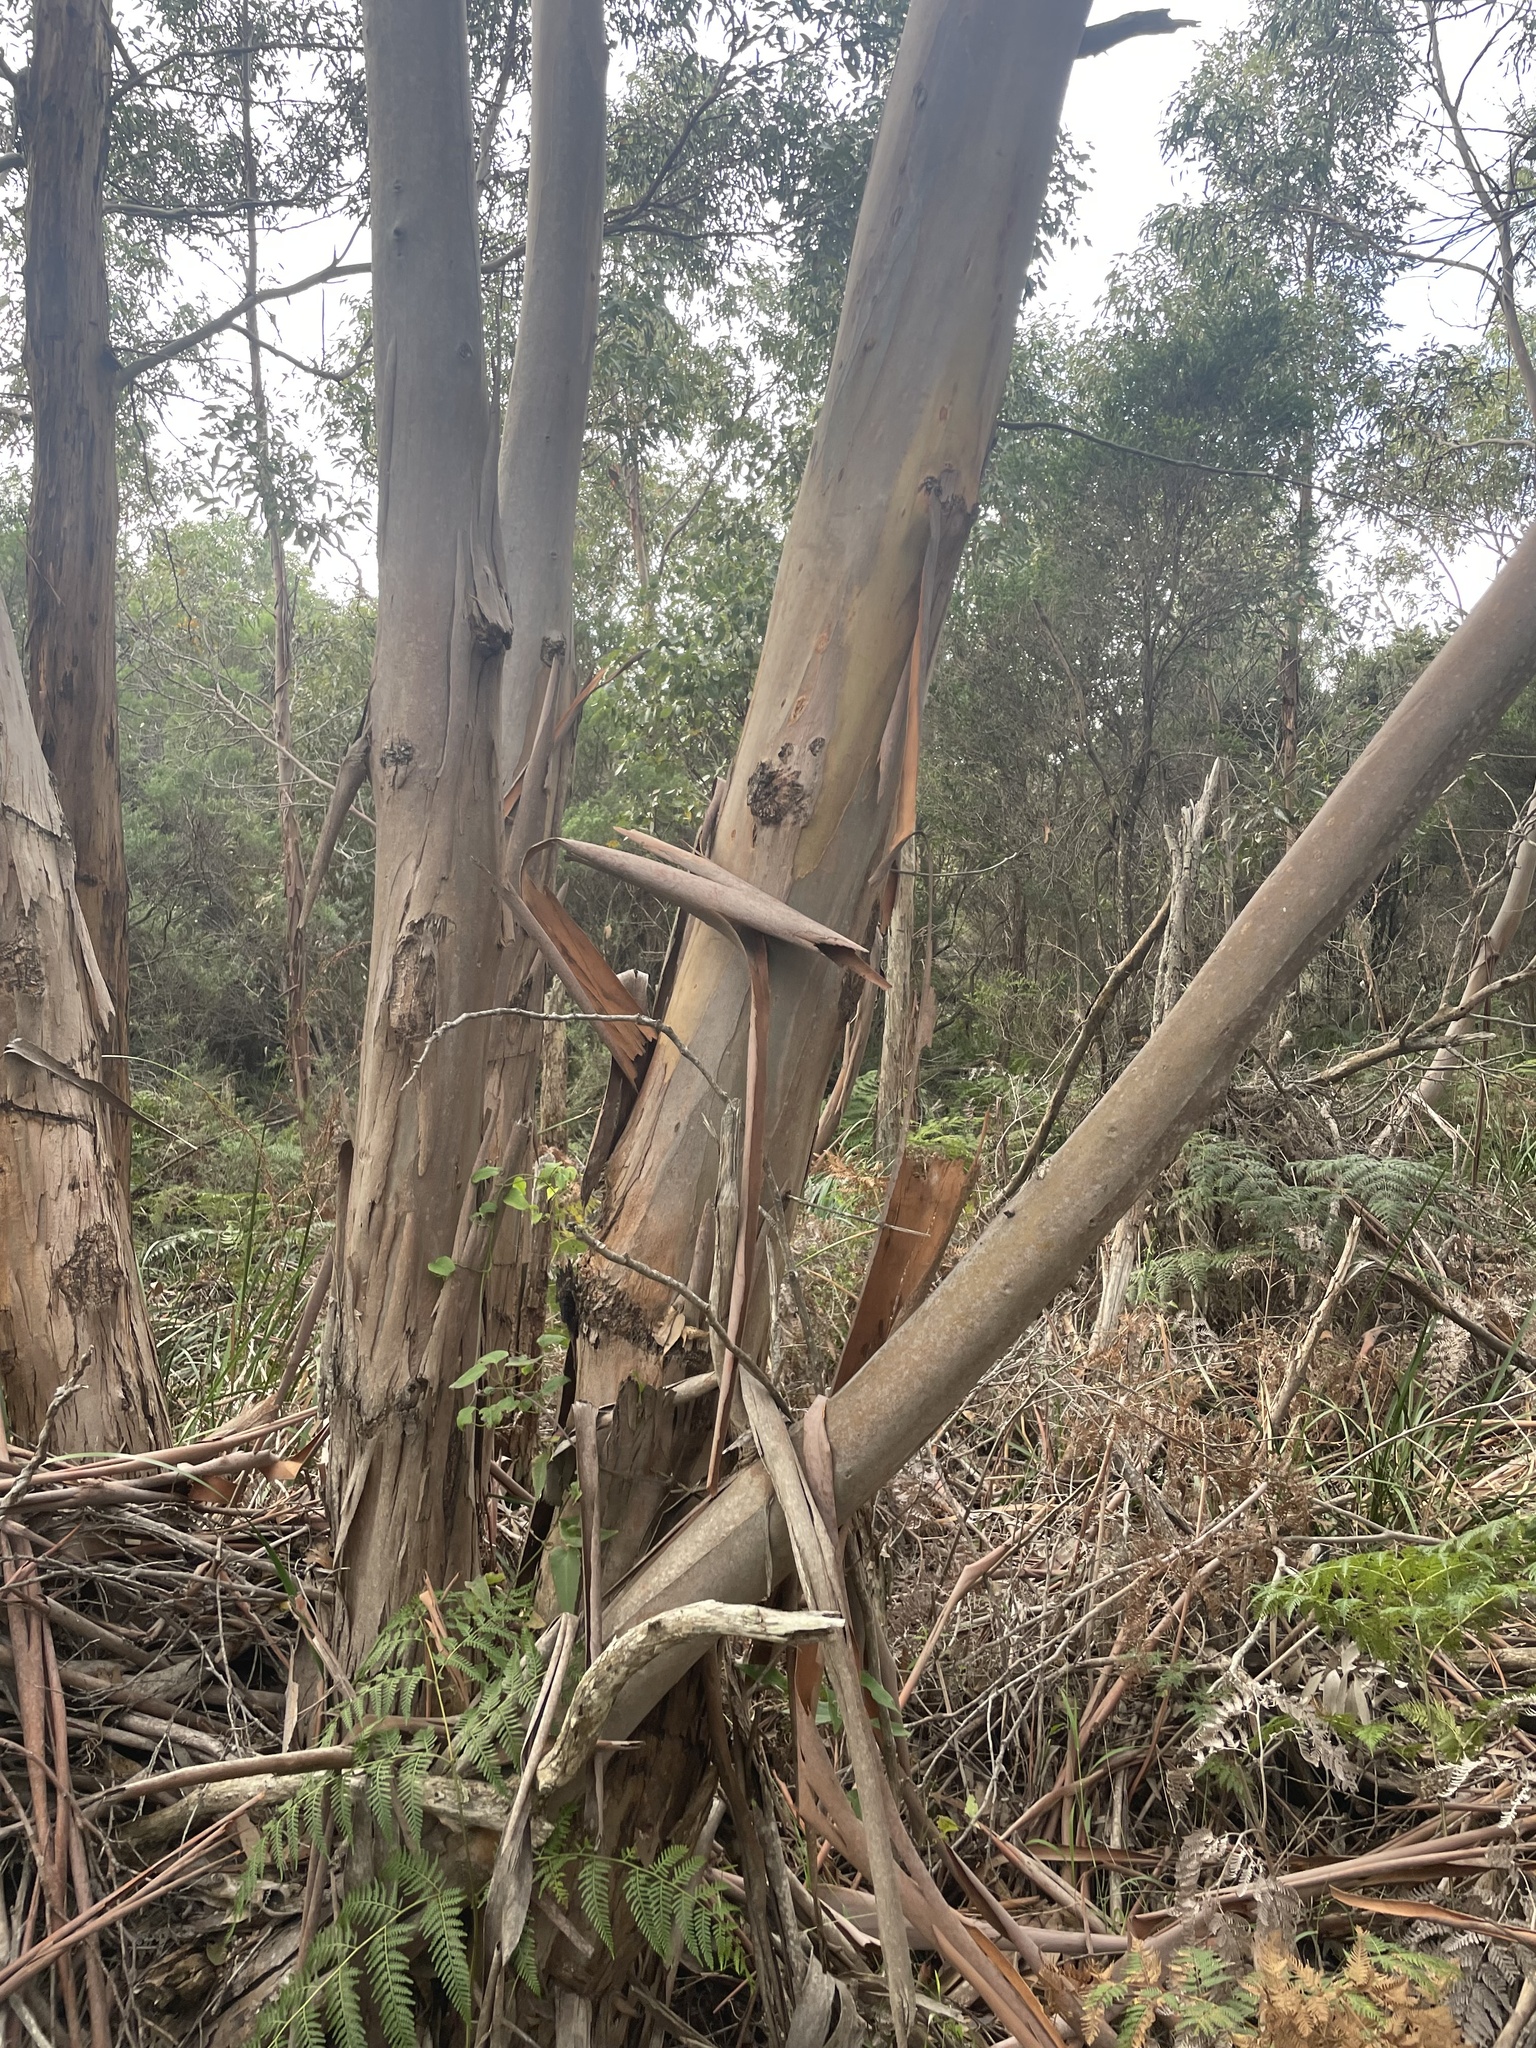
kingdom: Plantae
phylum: Tracheophyta
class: Magnoliopsida
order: Myrtales
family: Myrtaceae
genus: Eucalyptus
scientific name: Eucalyptus kitsoniana
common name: Gippsland mallee
